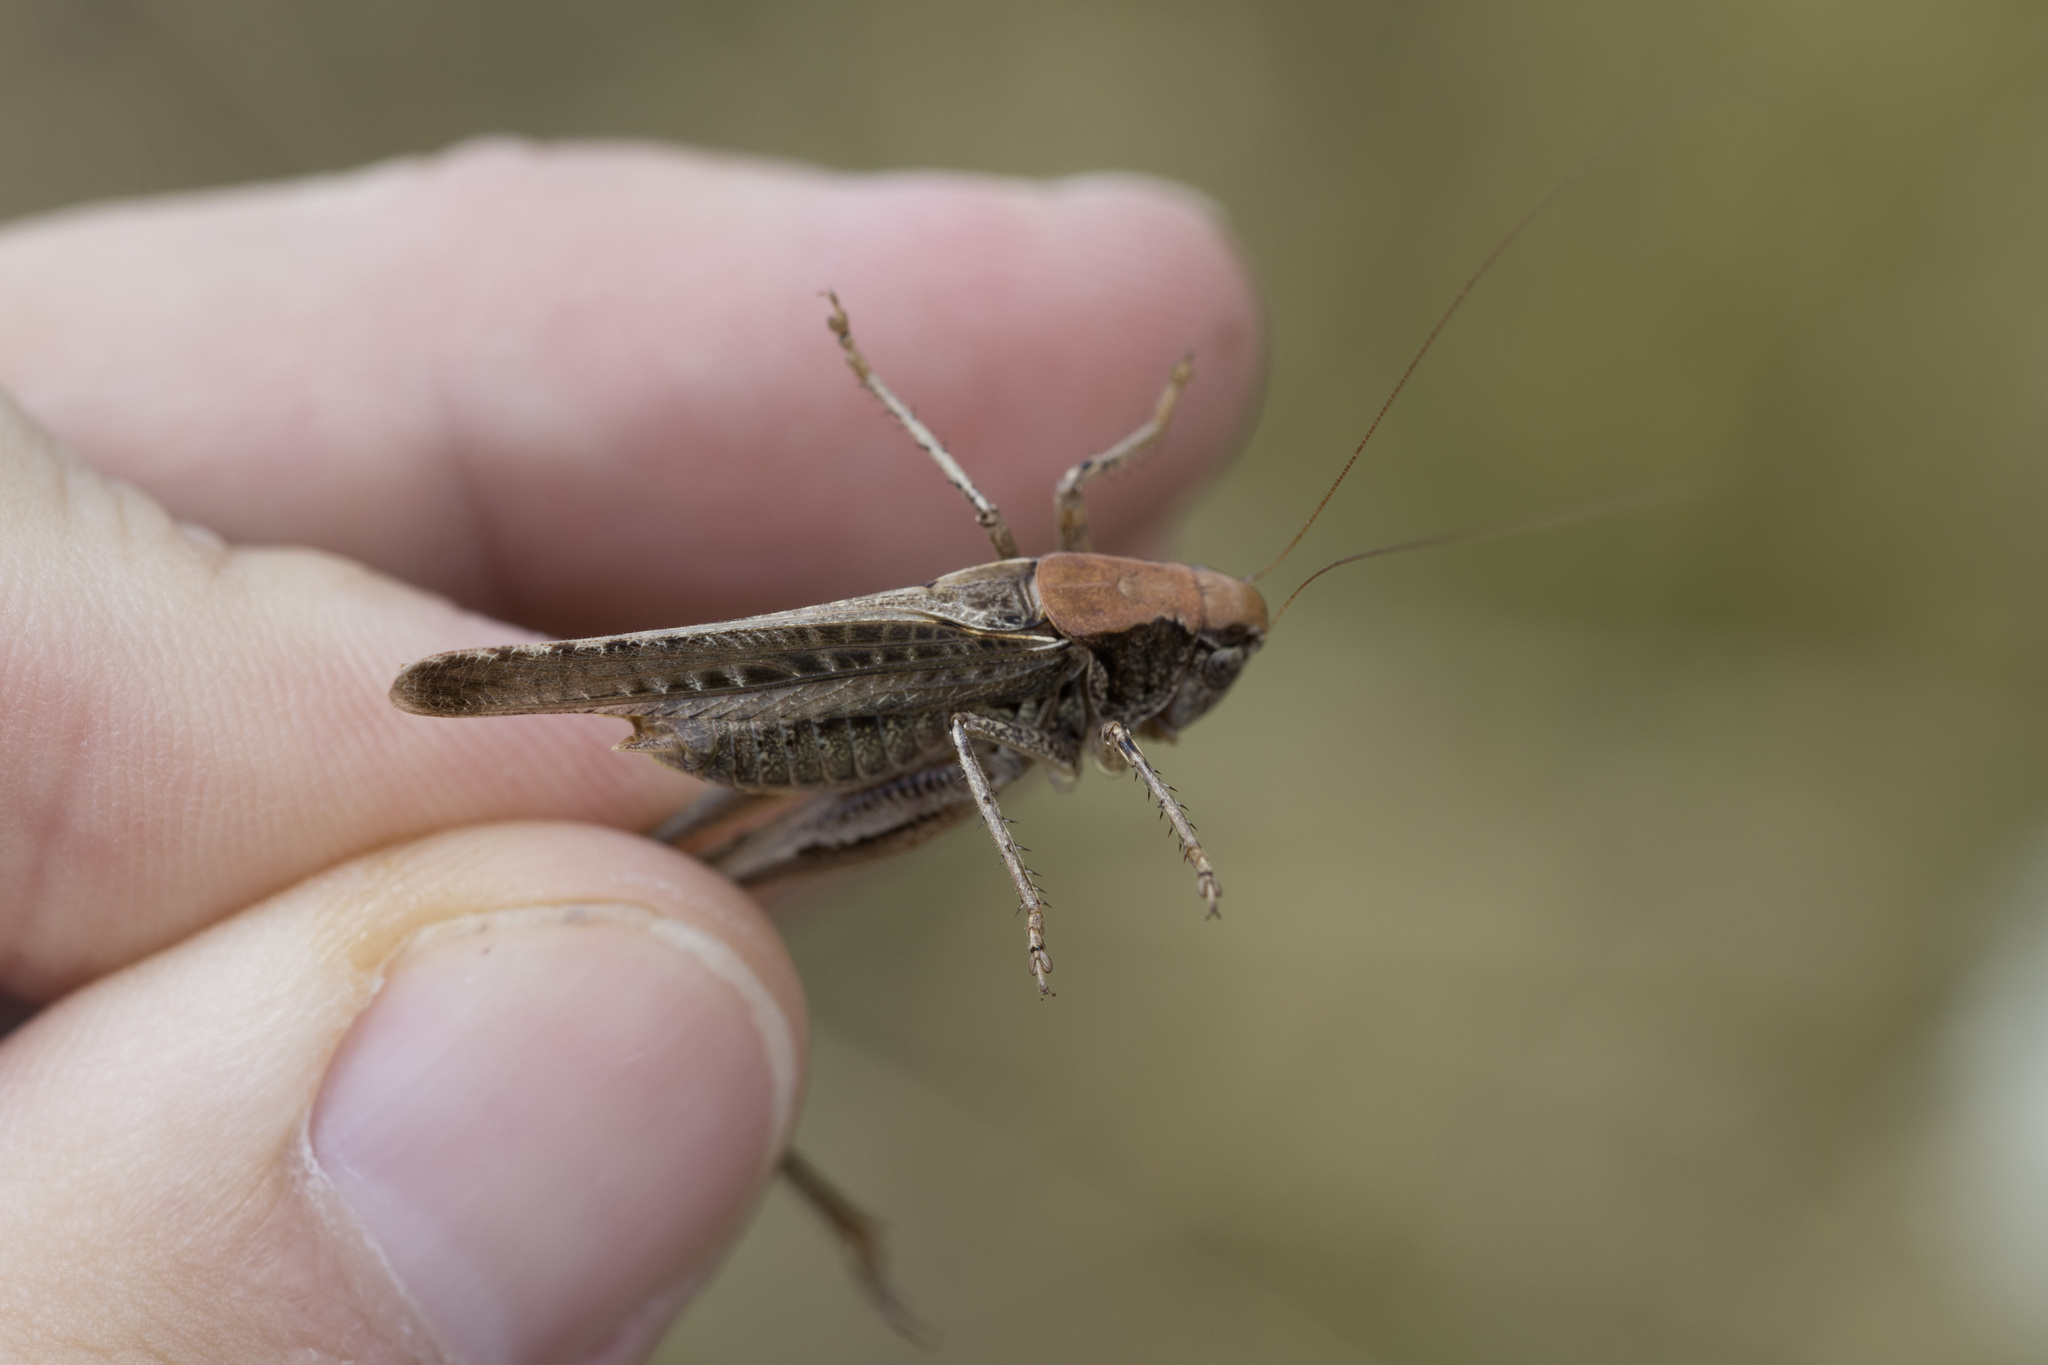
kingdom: Animalia
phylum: Arthropoda
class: Insecta
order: Orthoptera
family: Tettigoniidae
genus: Platycleis
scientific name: Platycleis albopunctata
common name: Grey bush-cricket
